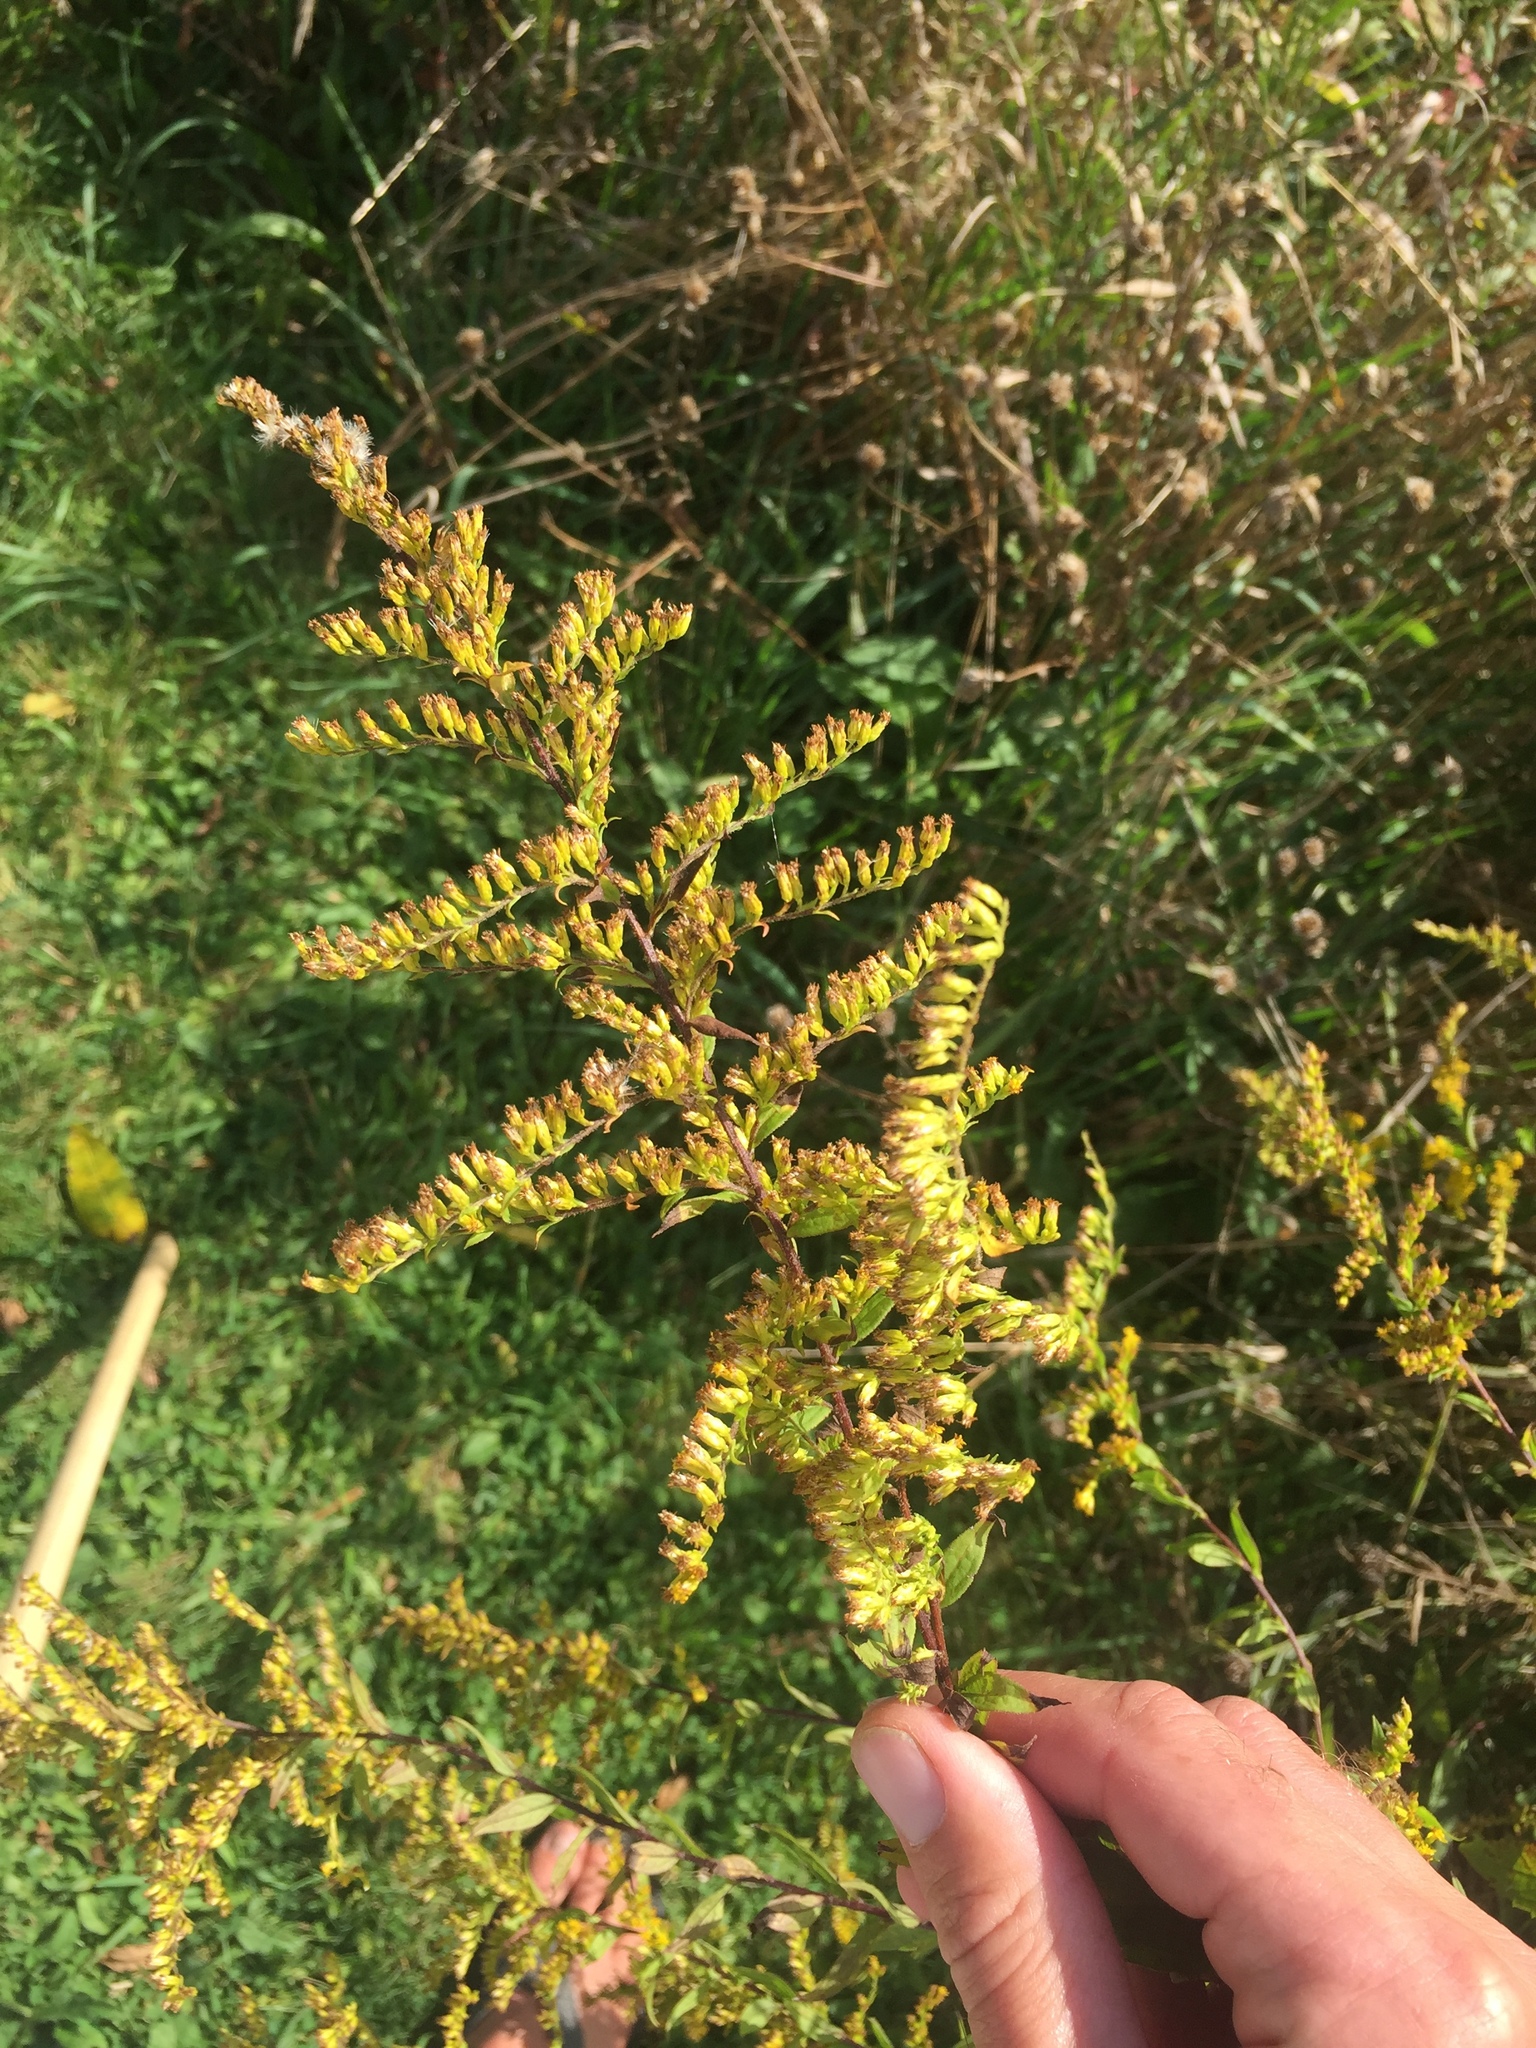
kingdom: Plantae
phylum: Tracheophyta
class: Magnoliopsida
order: Asterales
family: Asteraceae
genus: Solidago
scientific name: Solidago rugosa
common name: Rough-stemmed goldenrod
